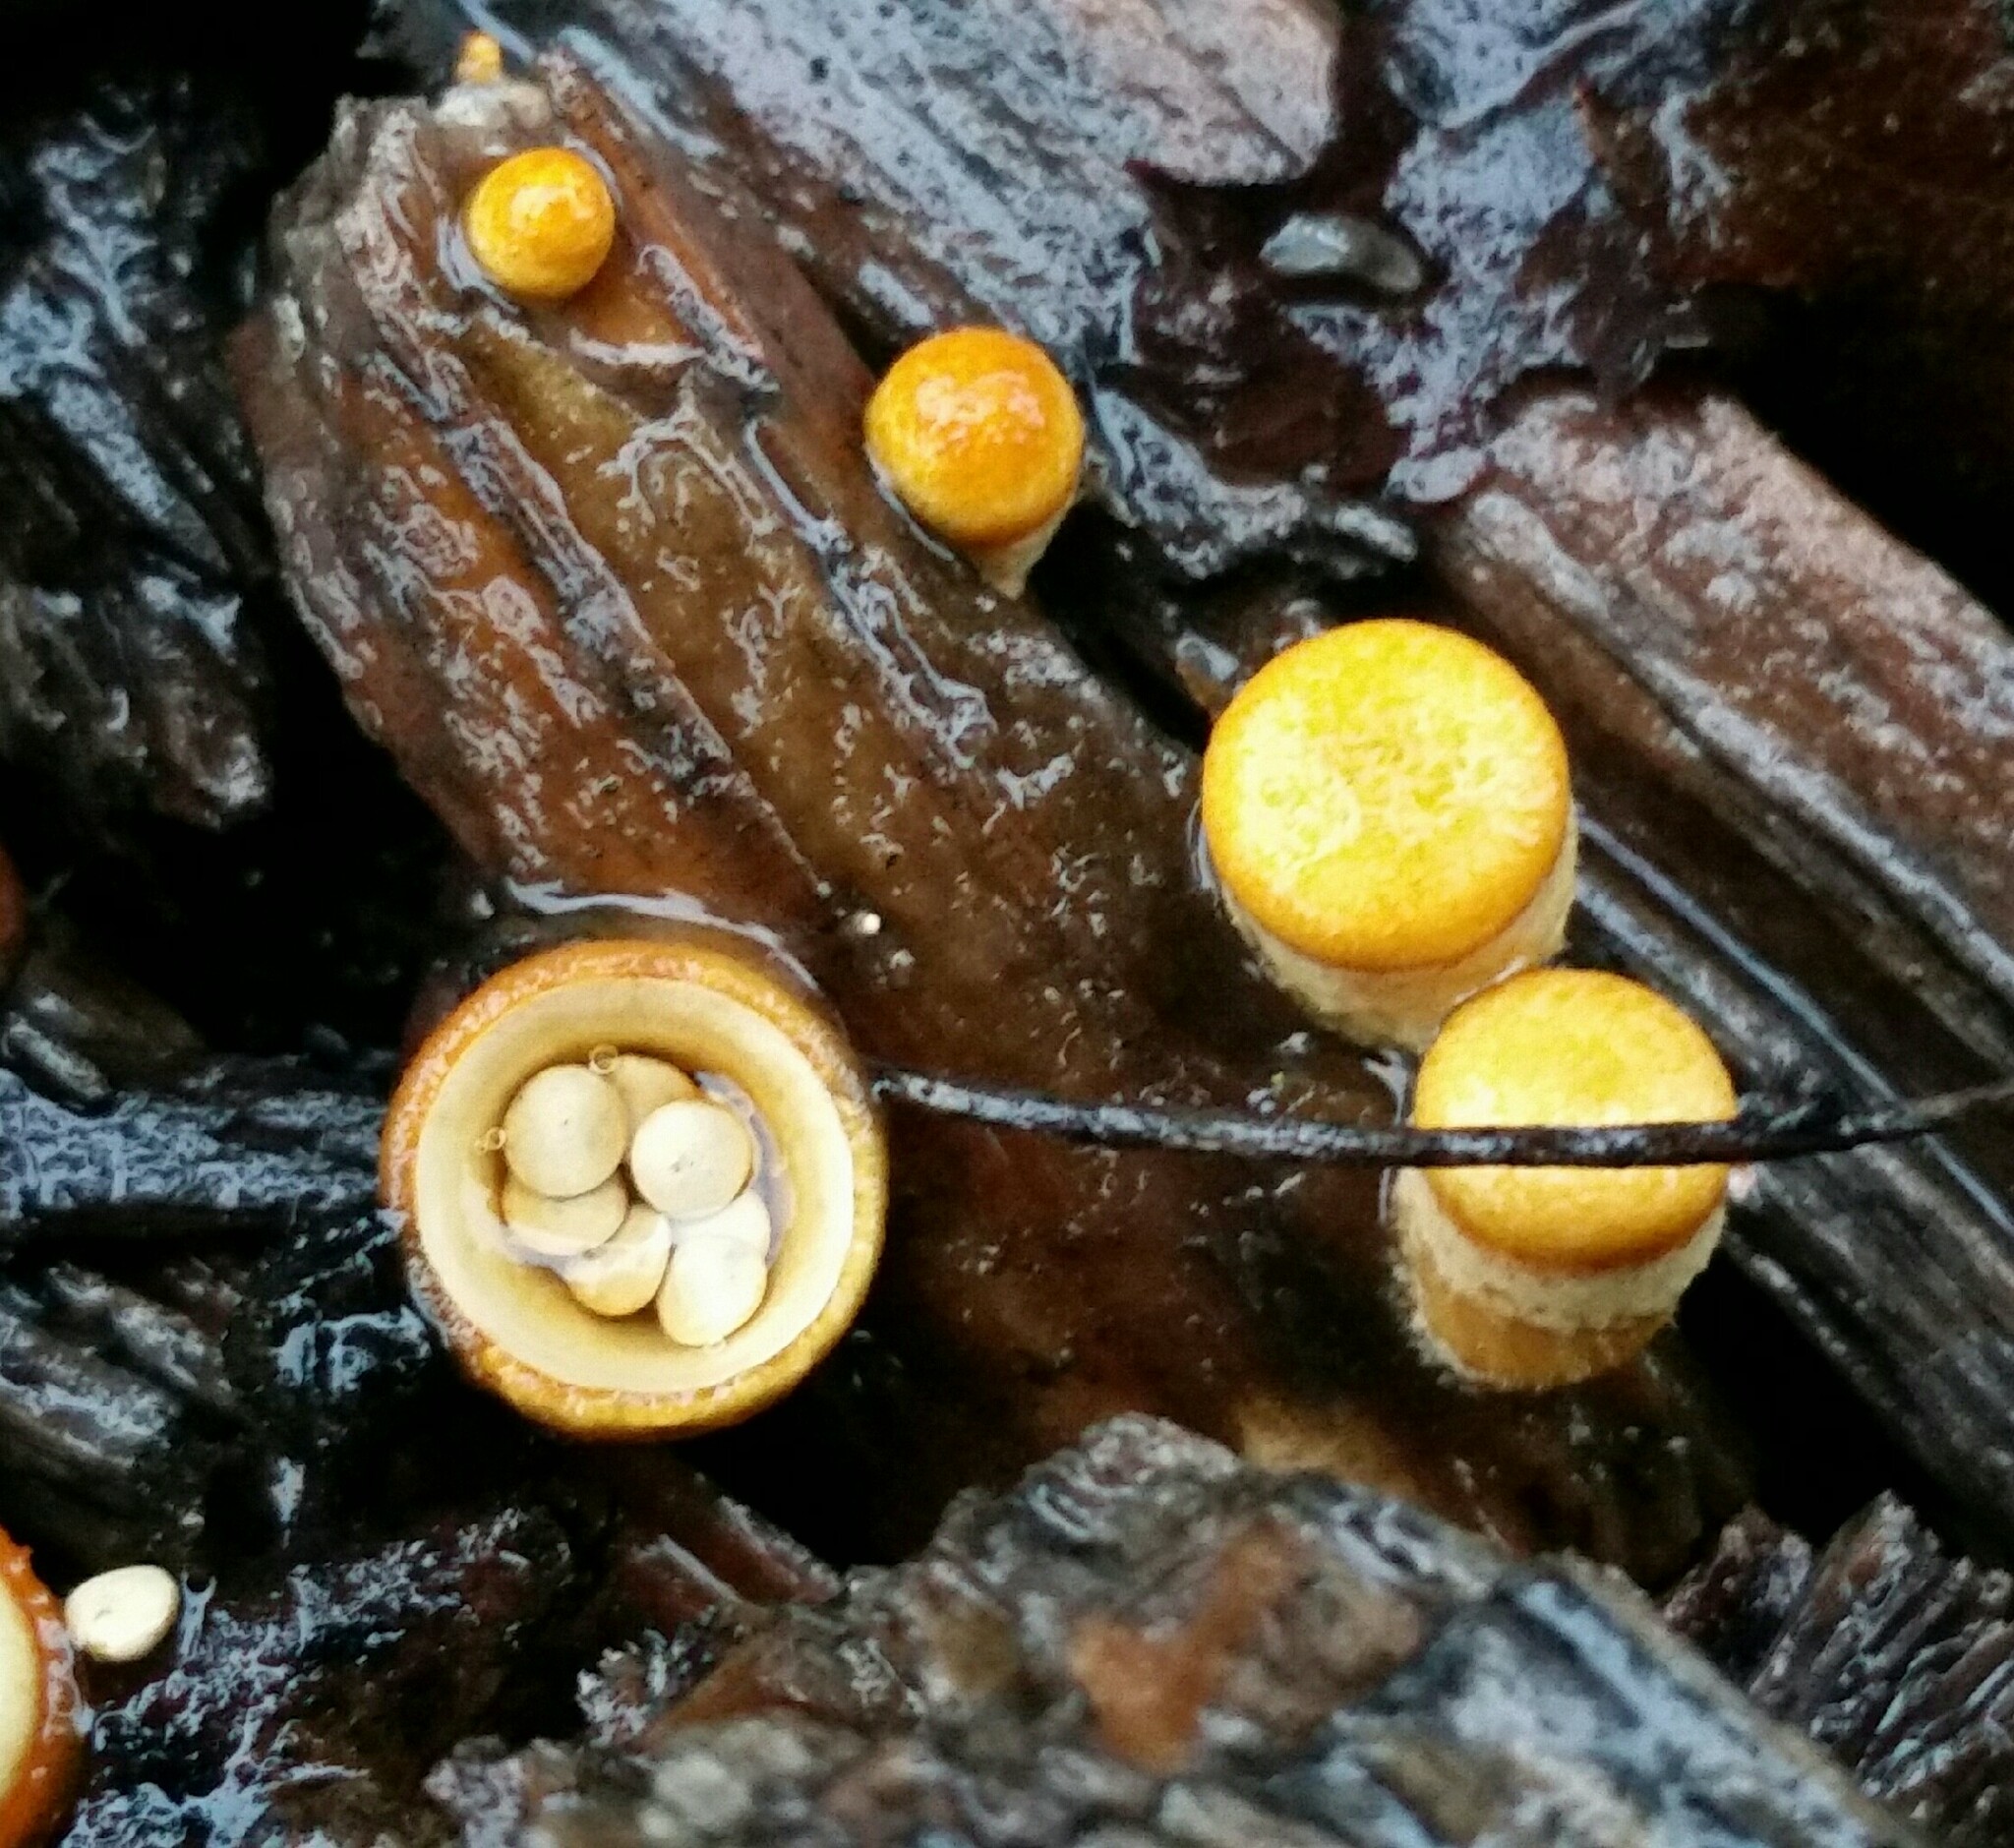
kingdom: Fungi
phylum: Basidiomycota
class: Agaricomycetes
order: Agaricales
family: Nidulariaceae
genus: Crucibulum
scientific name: Crucibulum laeve
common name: Common bird's nest
